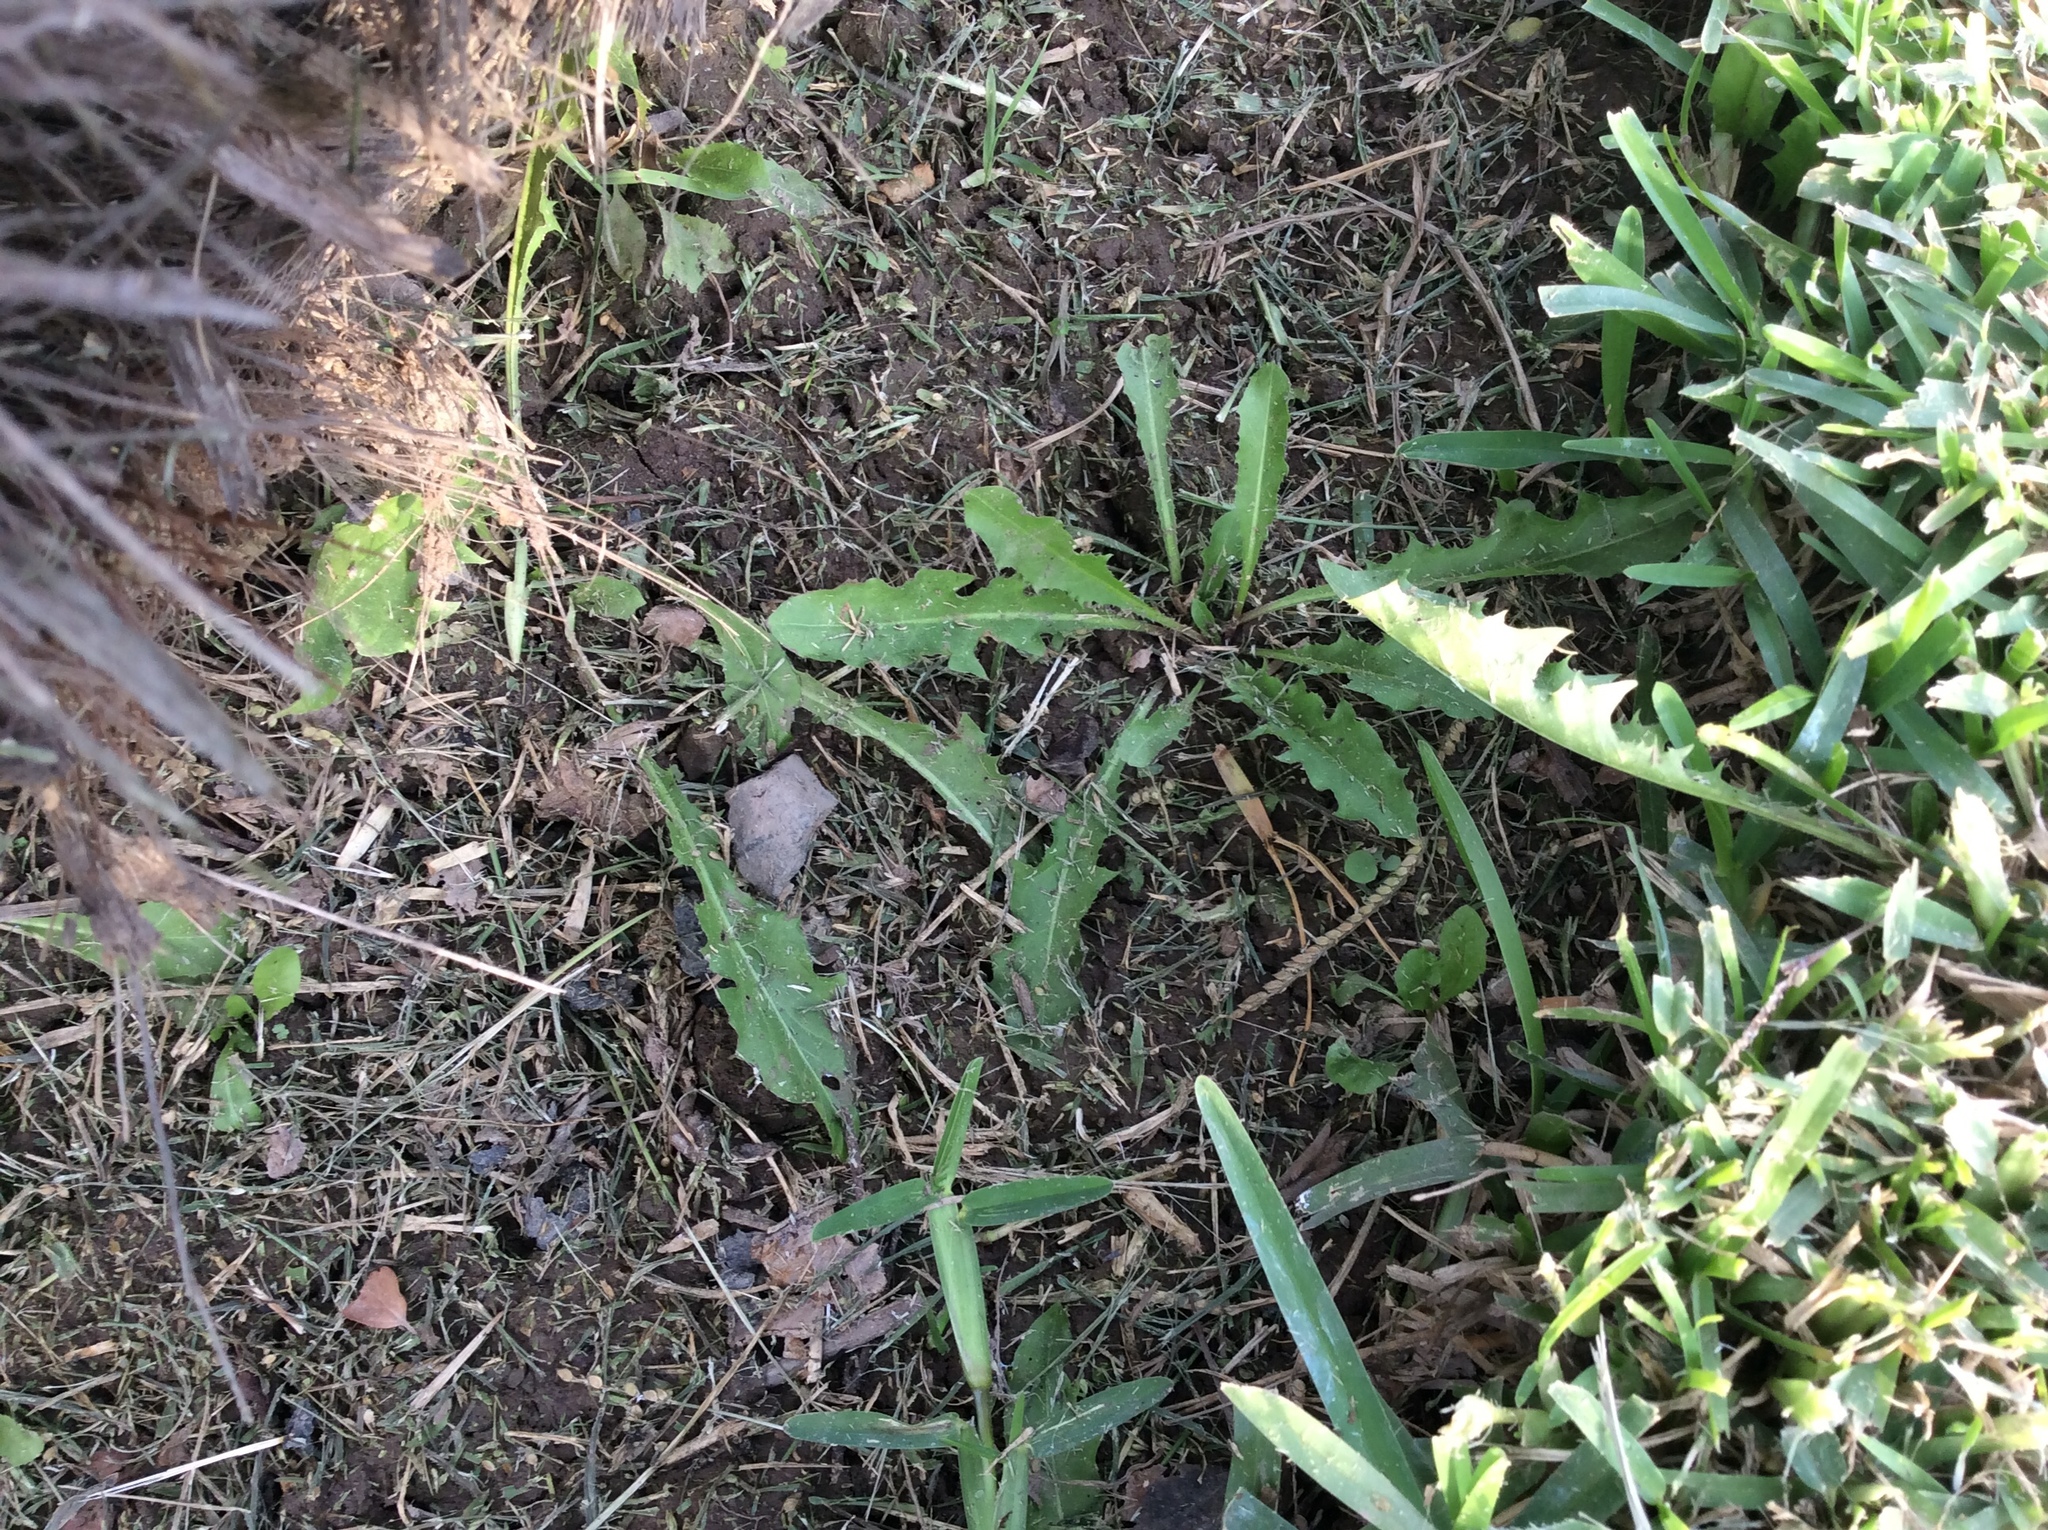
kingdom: Plantae
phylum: Tracheophyta
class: Magnoliopsida
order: Asterales
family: Asteraceae
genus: Taraxacum
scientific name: Taraxacum officinale
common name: Common dandelion
